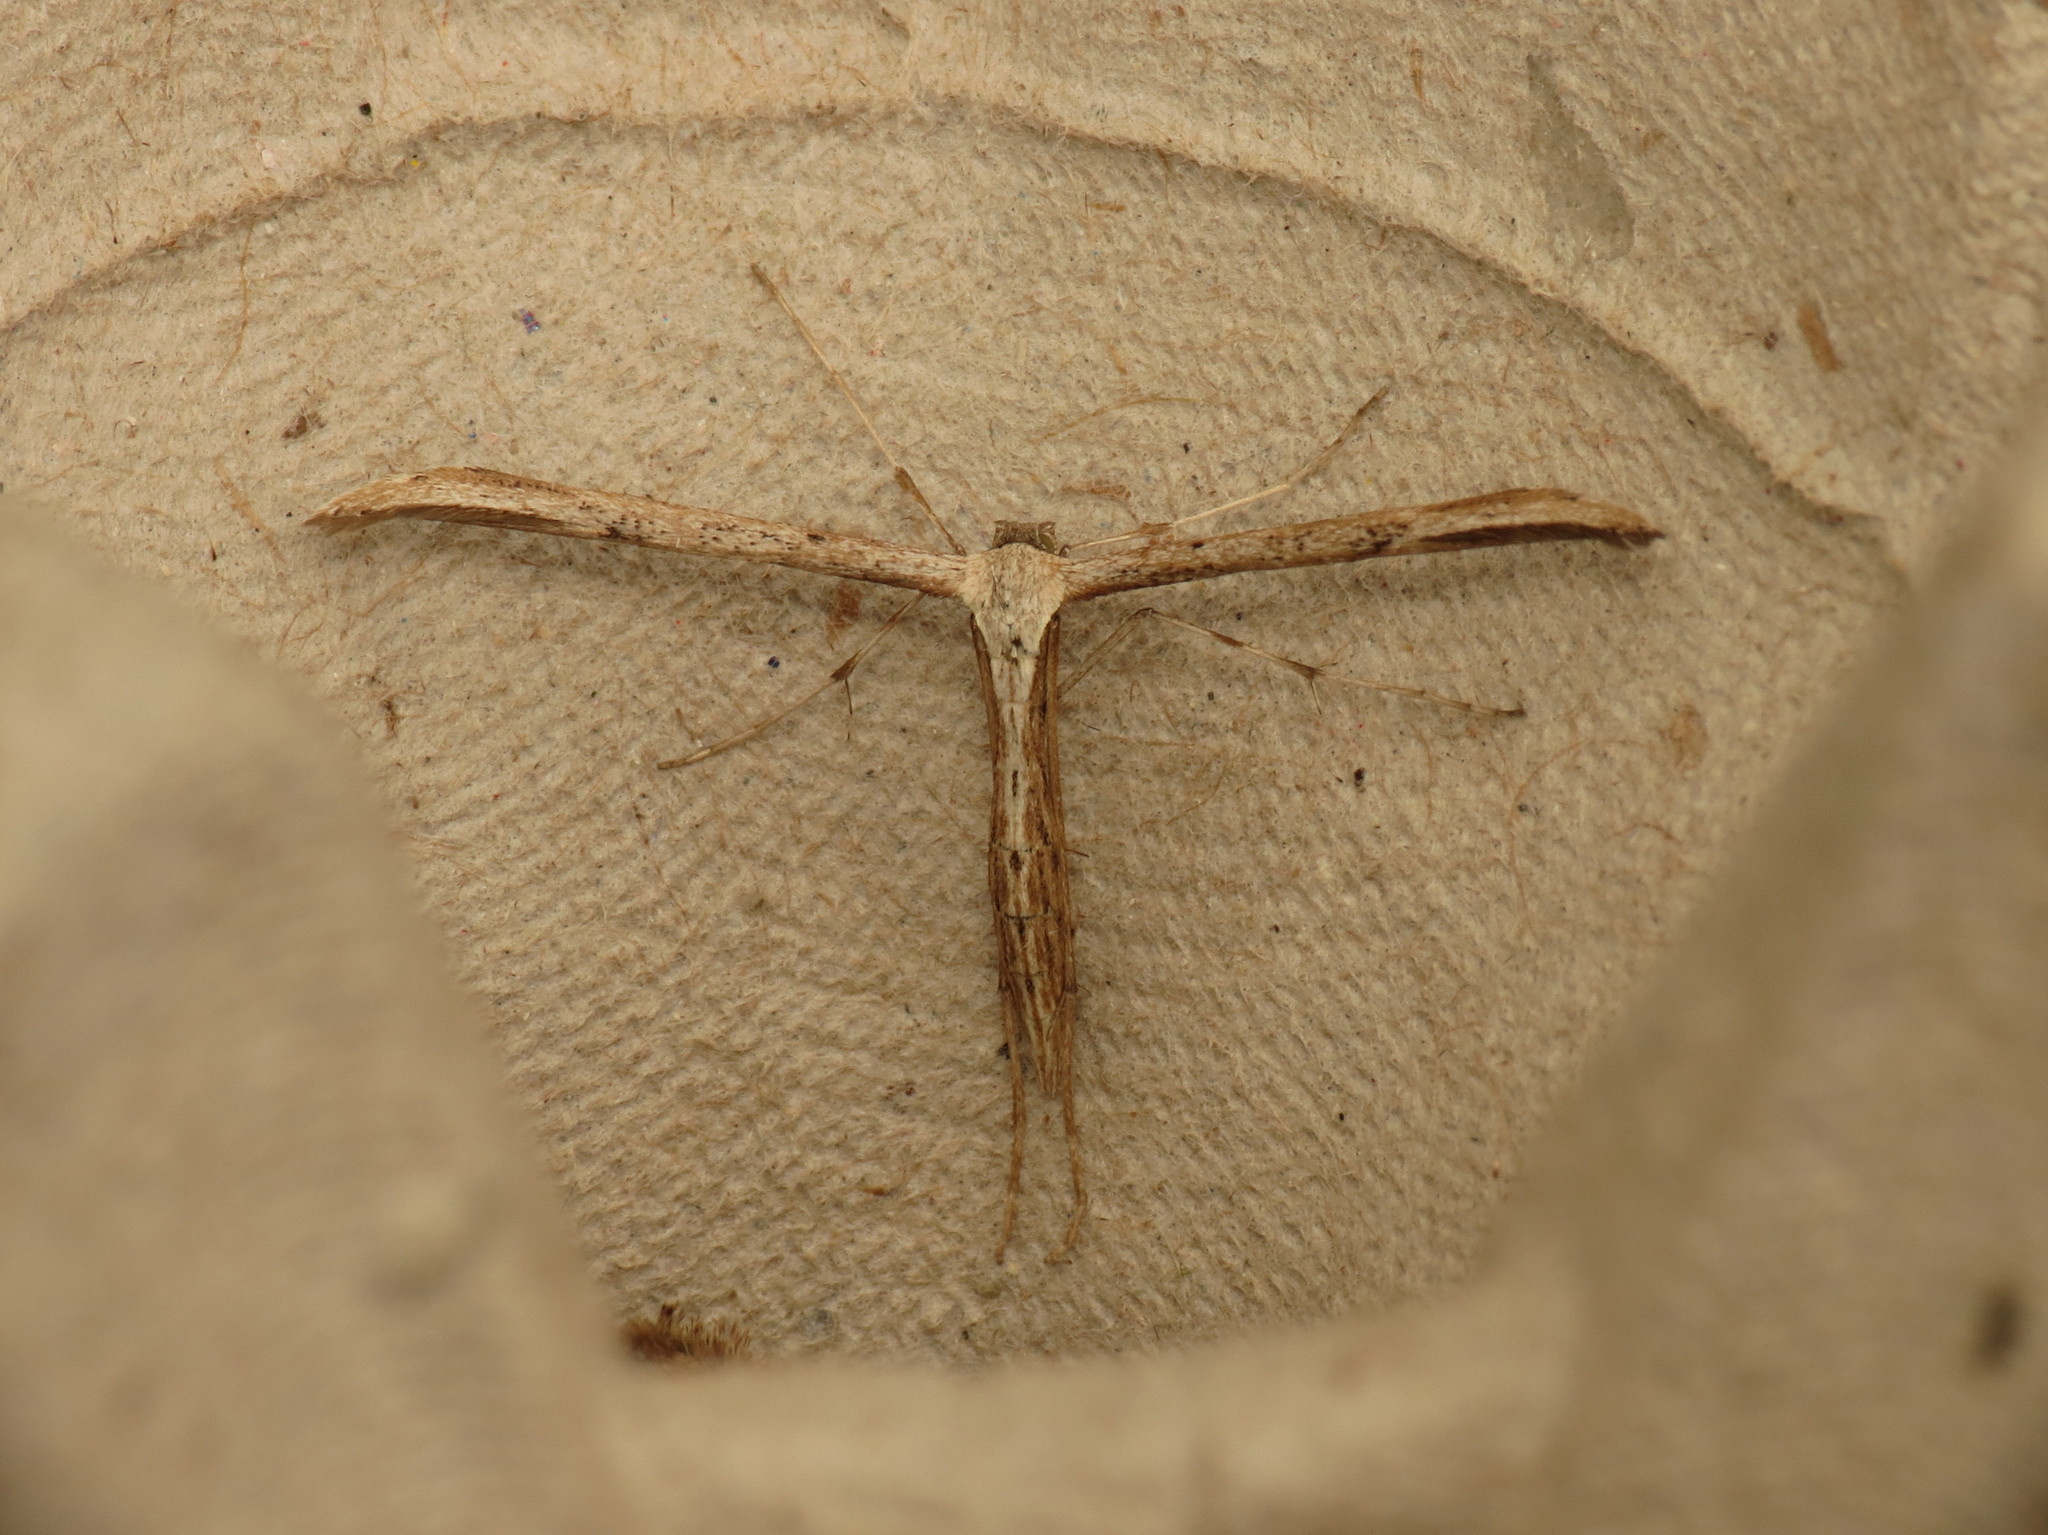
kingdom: Animalia
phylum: Arthropoda
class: Insecta
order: Lepidoptera
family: Pterophoridae
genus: Emmelina
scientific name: Emmelina monodactyla
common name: Common plume
